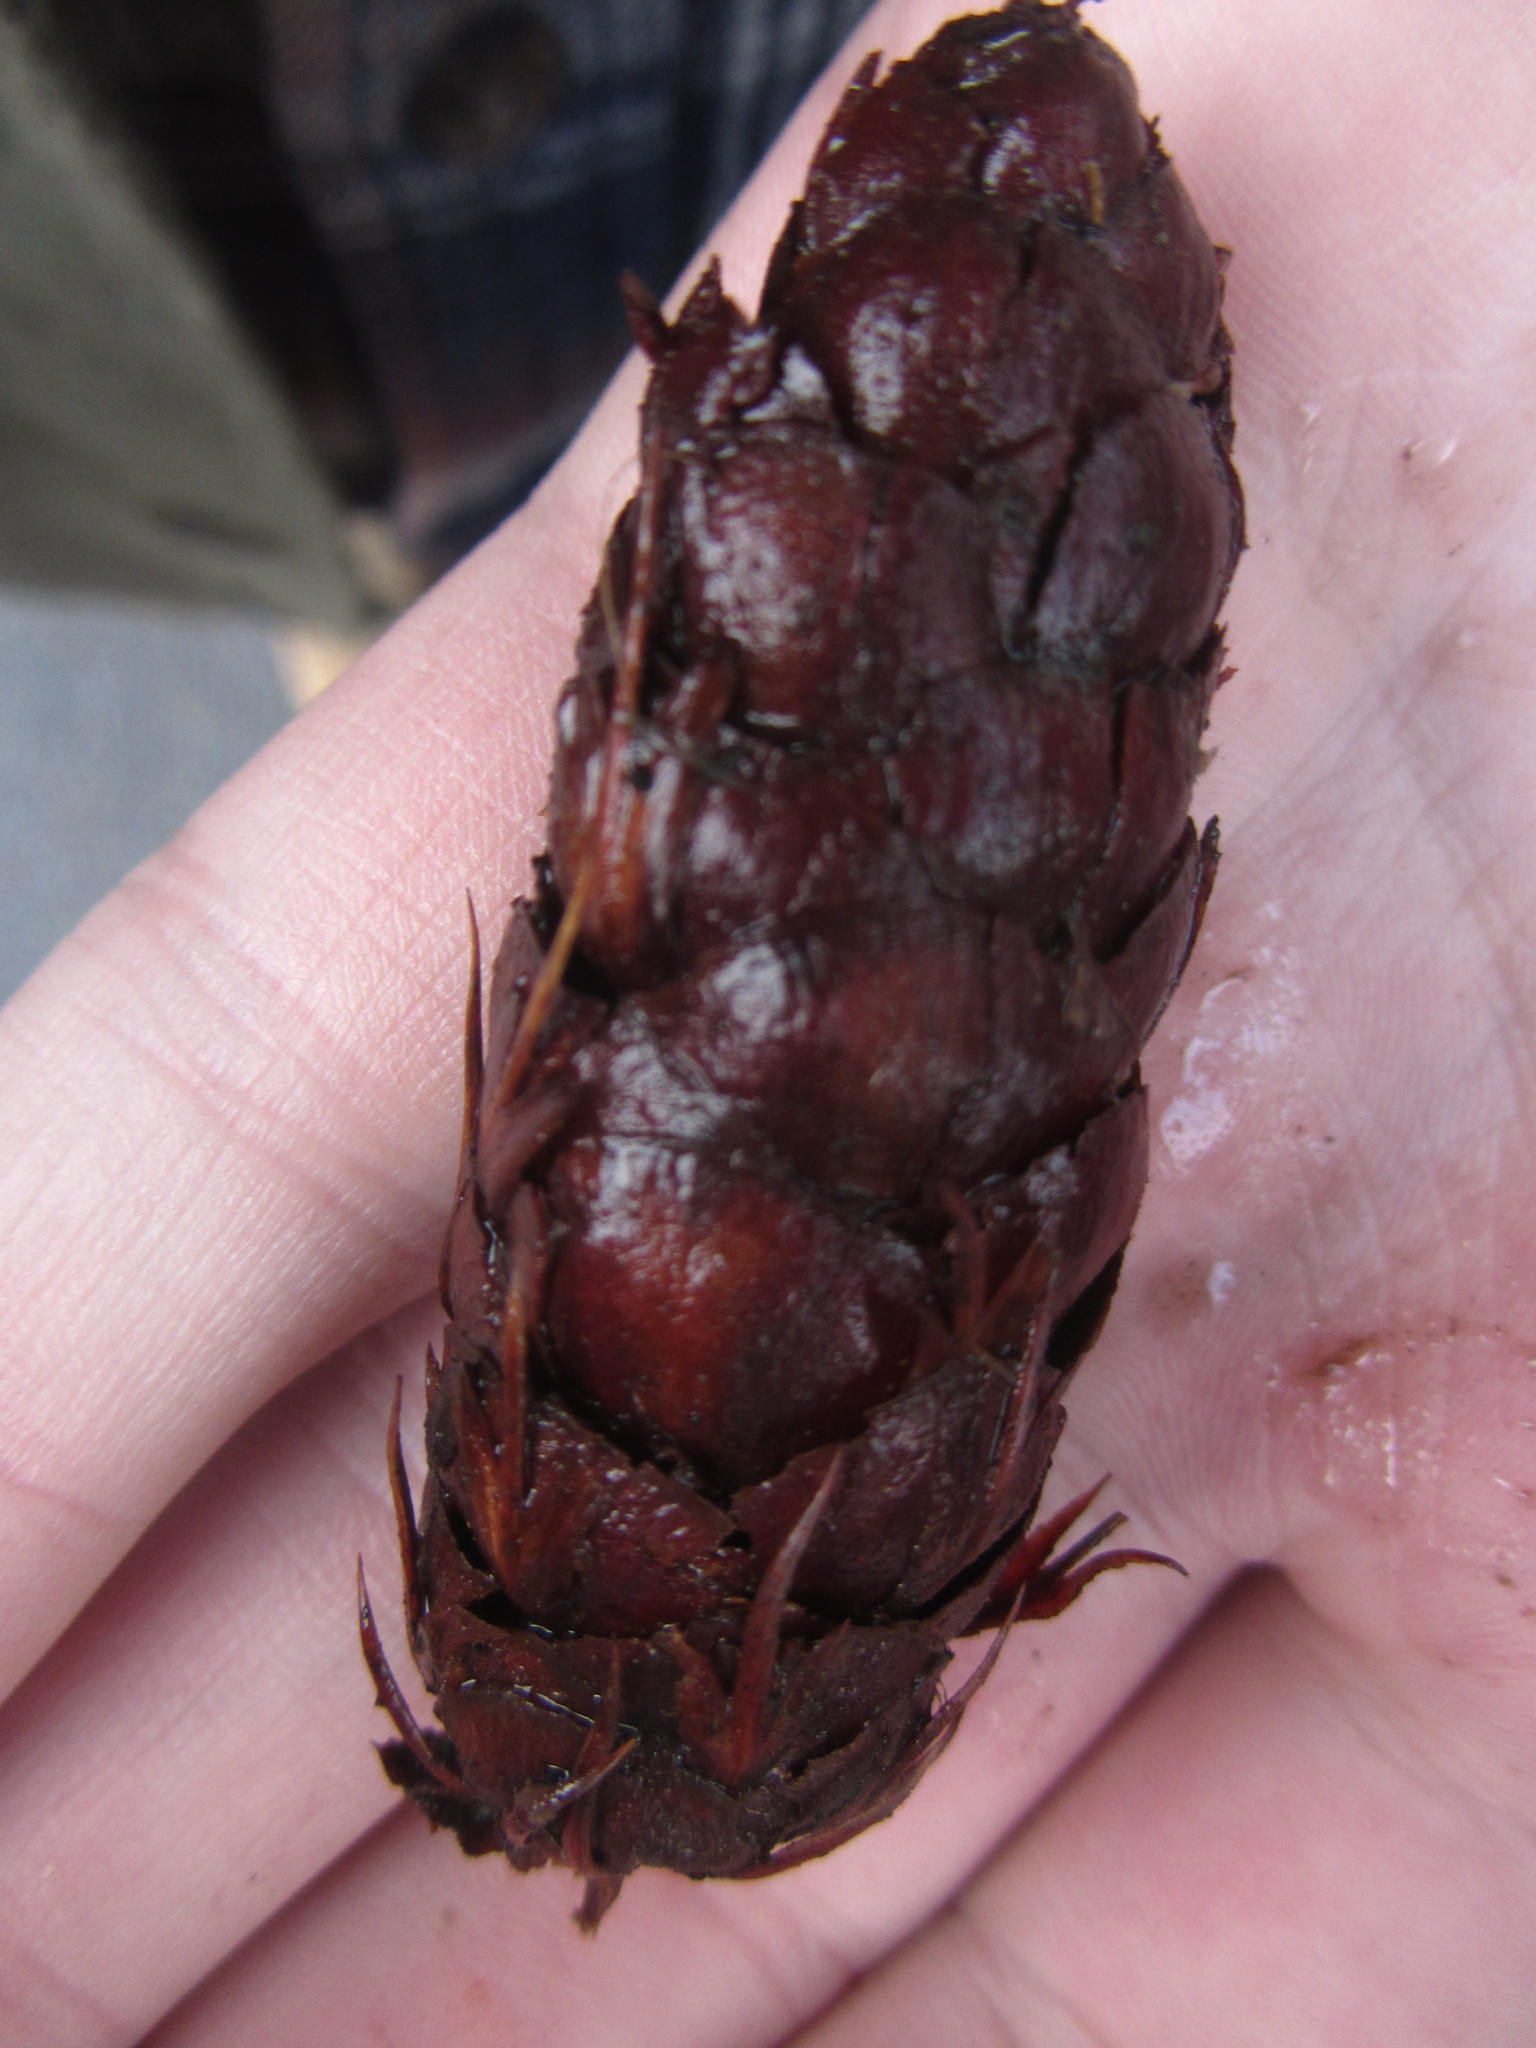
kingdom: Plantae
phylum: Tracheophyta
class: Pinopsida
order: Pinales
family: Pinaceae
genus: Pseudotsuga
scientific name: Pseudotsuga menziesii
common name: Douglas fir
